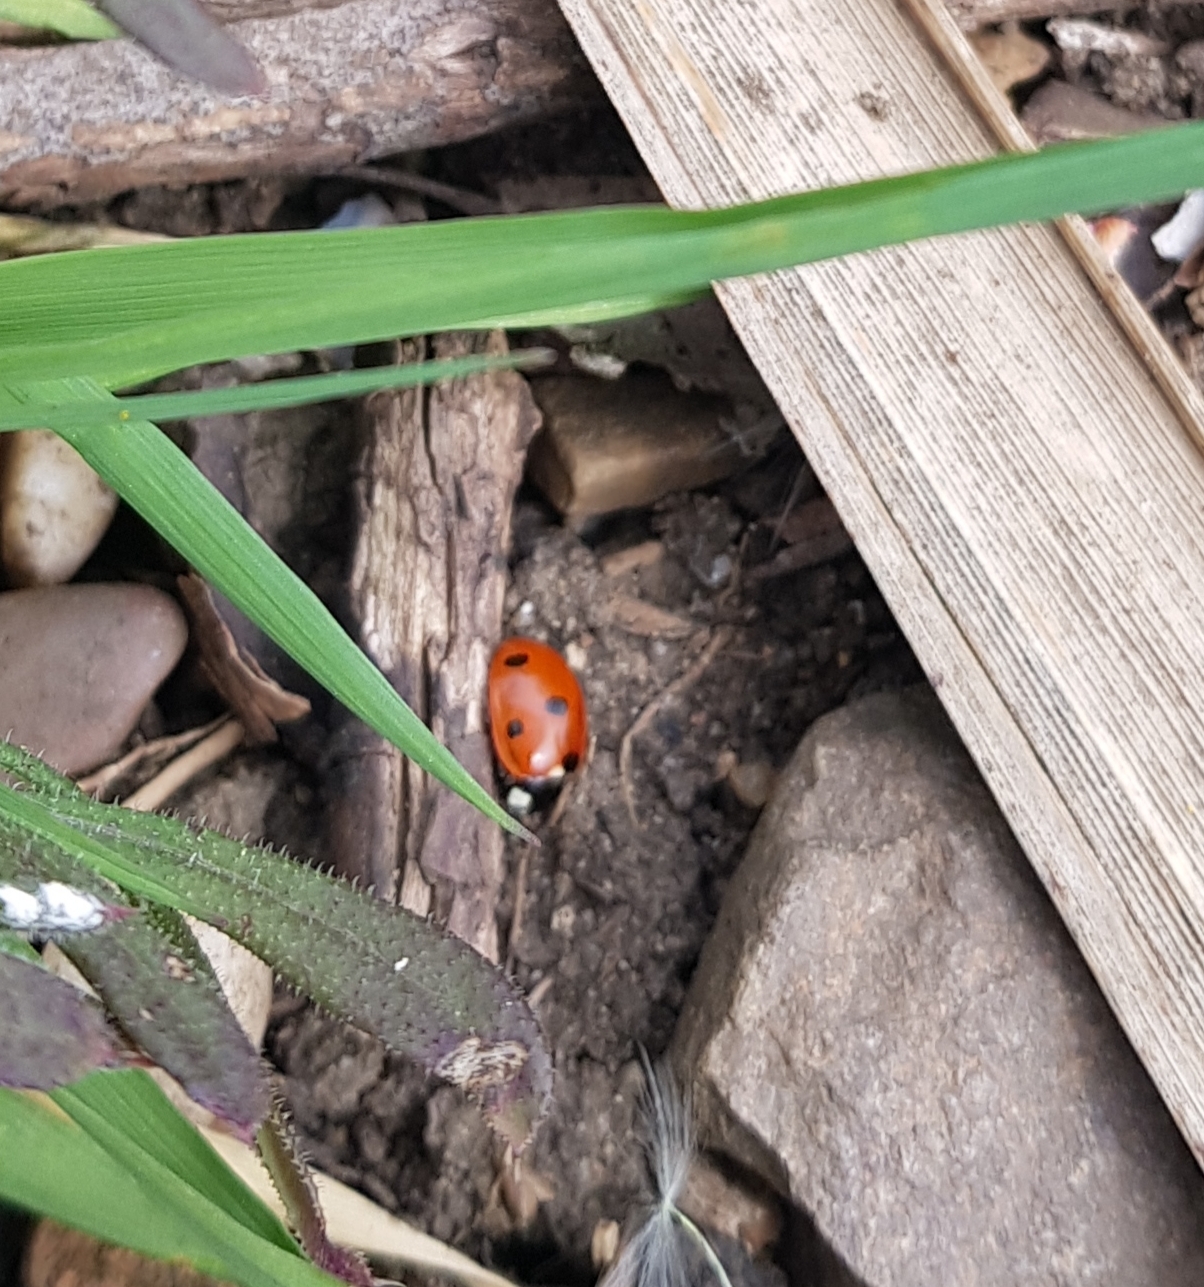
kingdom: Animalia
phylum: Arthropoda
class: Insecta
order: Coleoptera
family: Coccinellidae
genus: Coccinella
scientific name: Coccinella septempunctata
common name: Sevenspotted lady beetle
